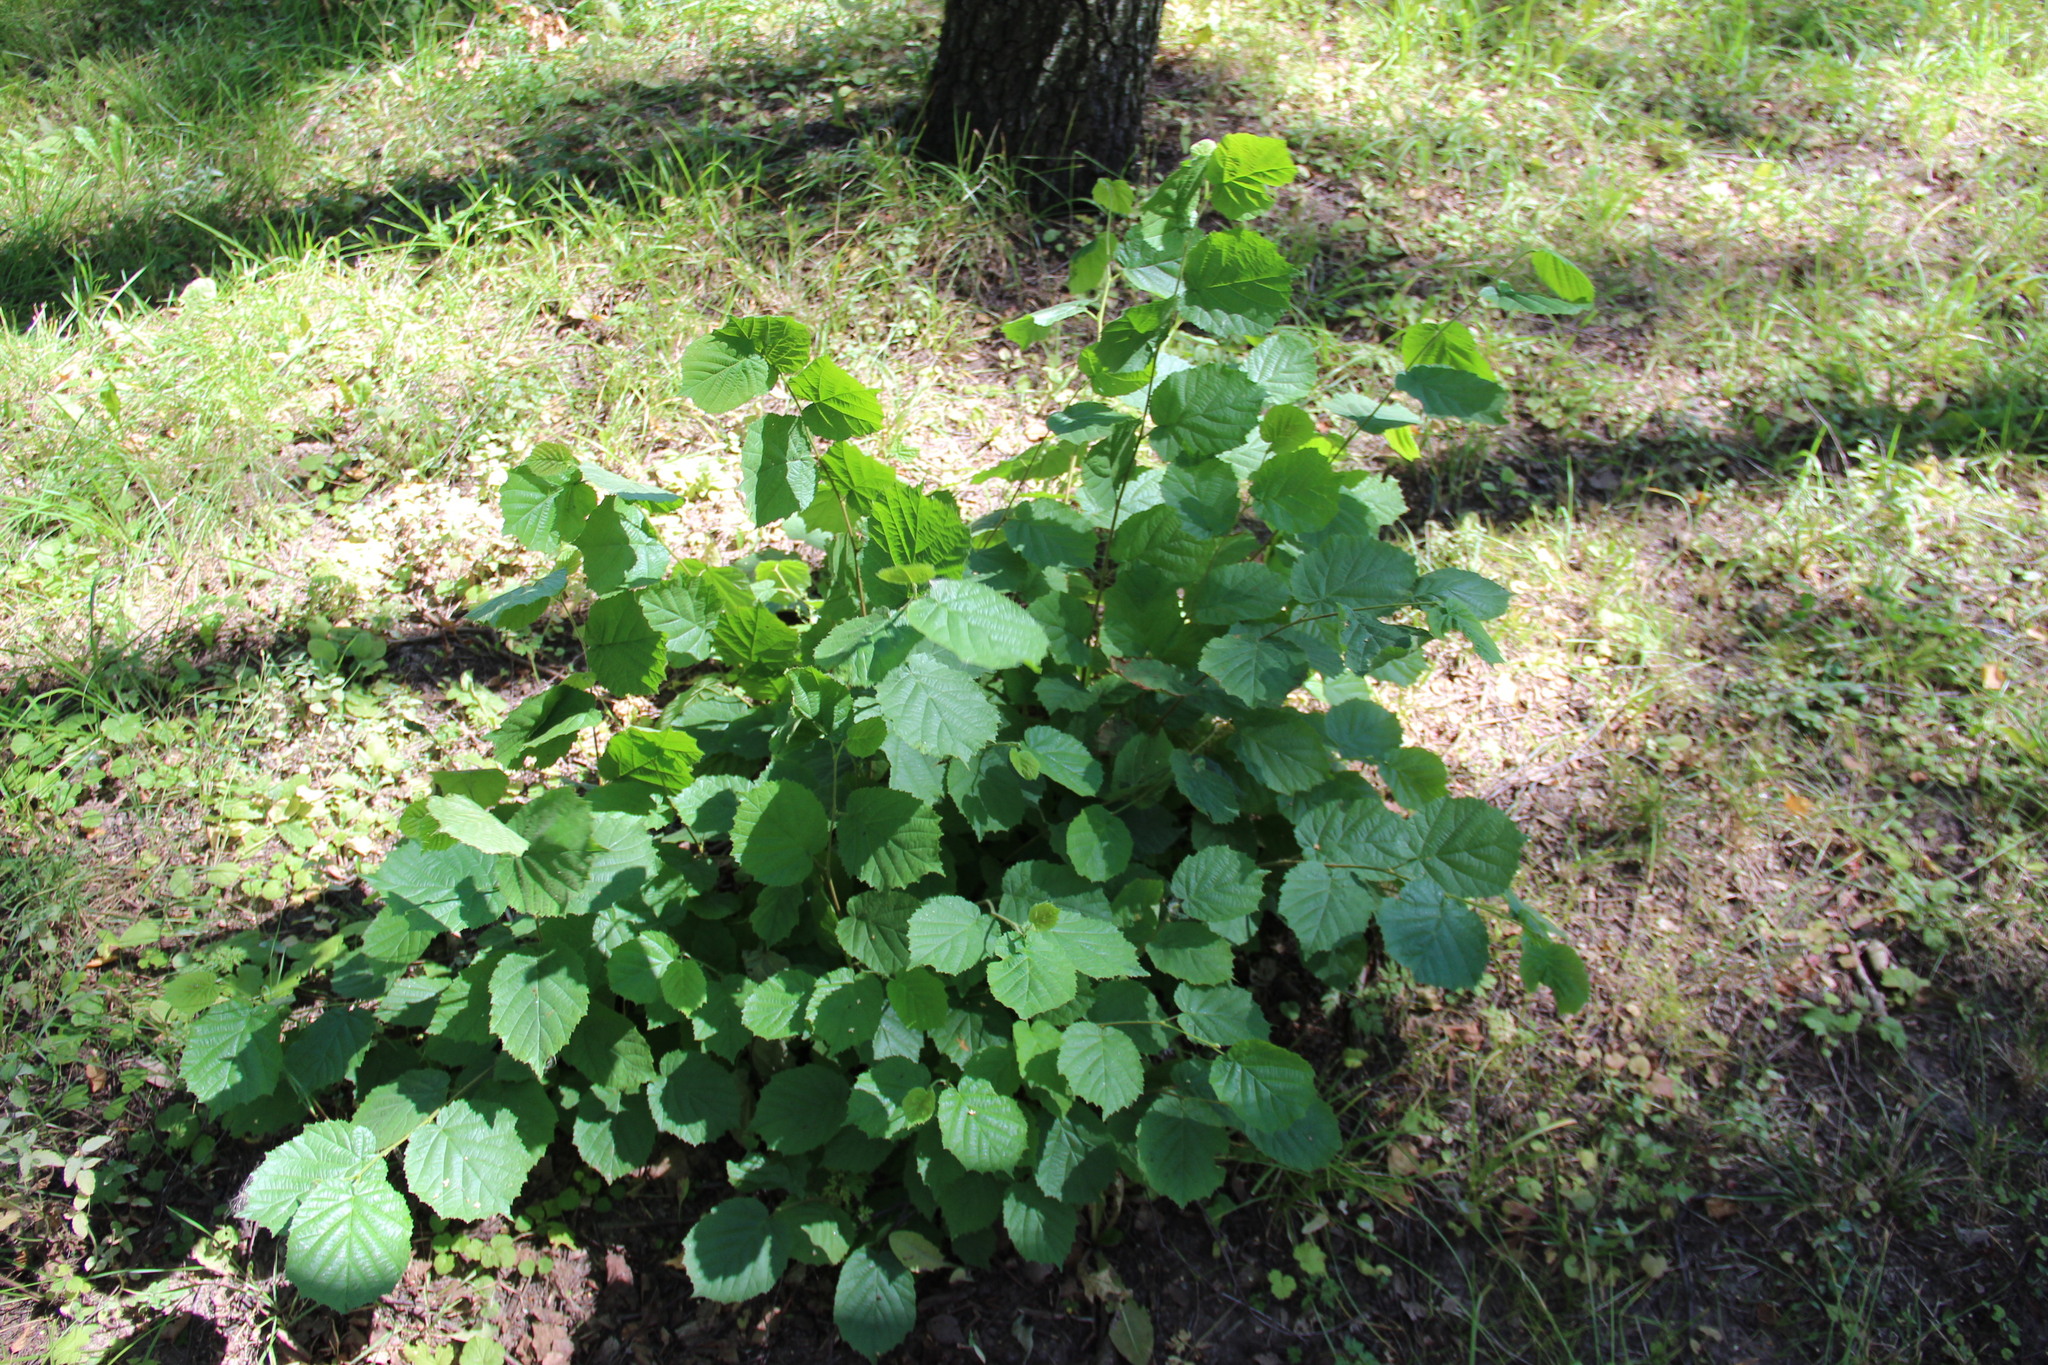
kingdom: Plantae
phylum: Tracheophyta
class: Magnoliopsida
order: Fagales
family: Betulaceae
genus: Corylus
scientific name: Corylus avellana
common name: European hazel
